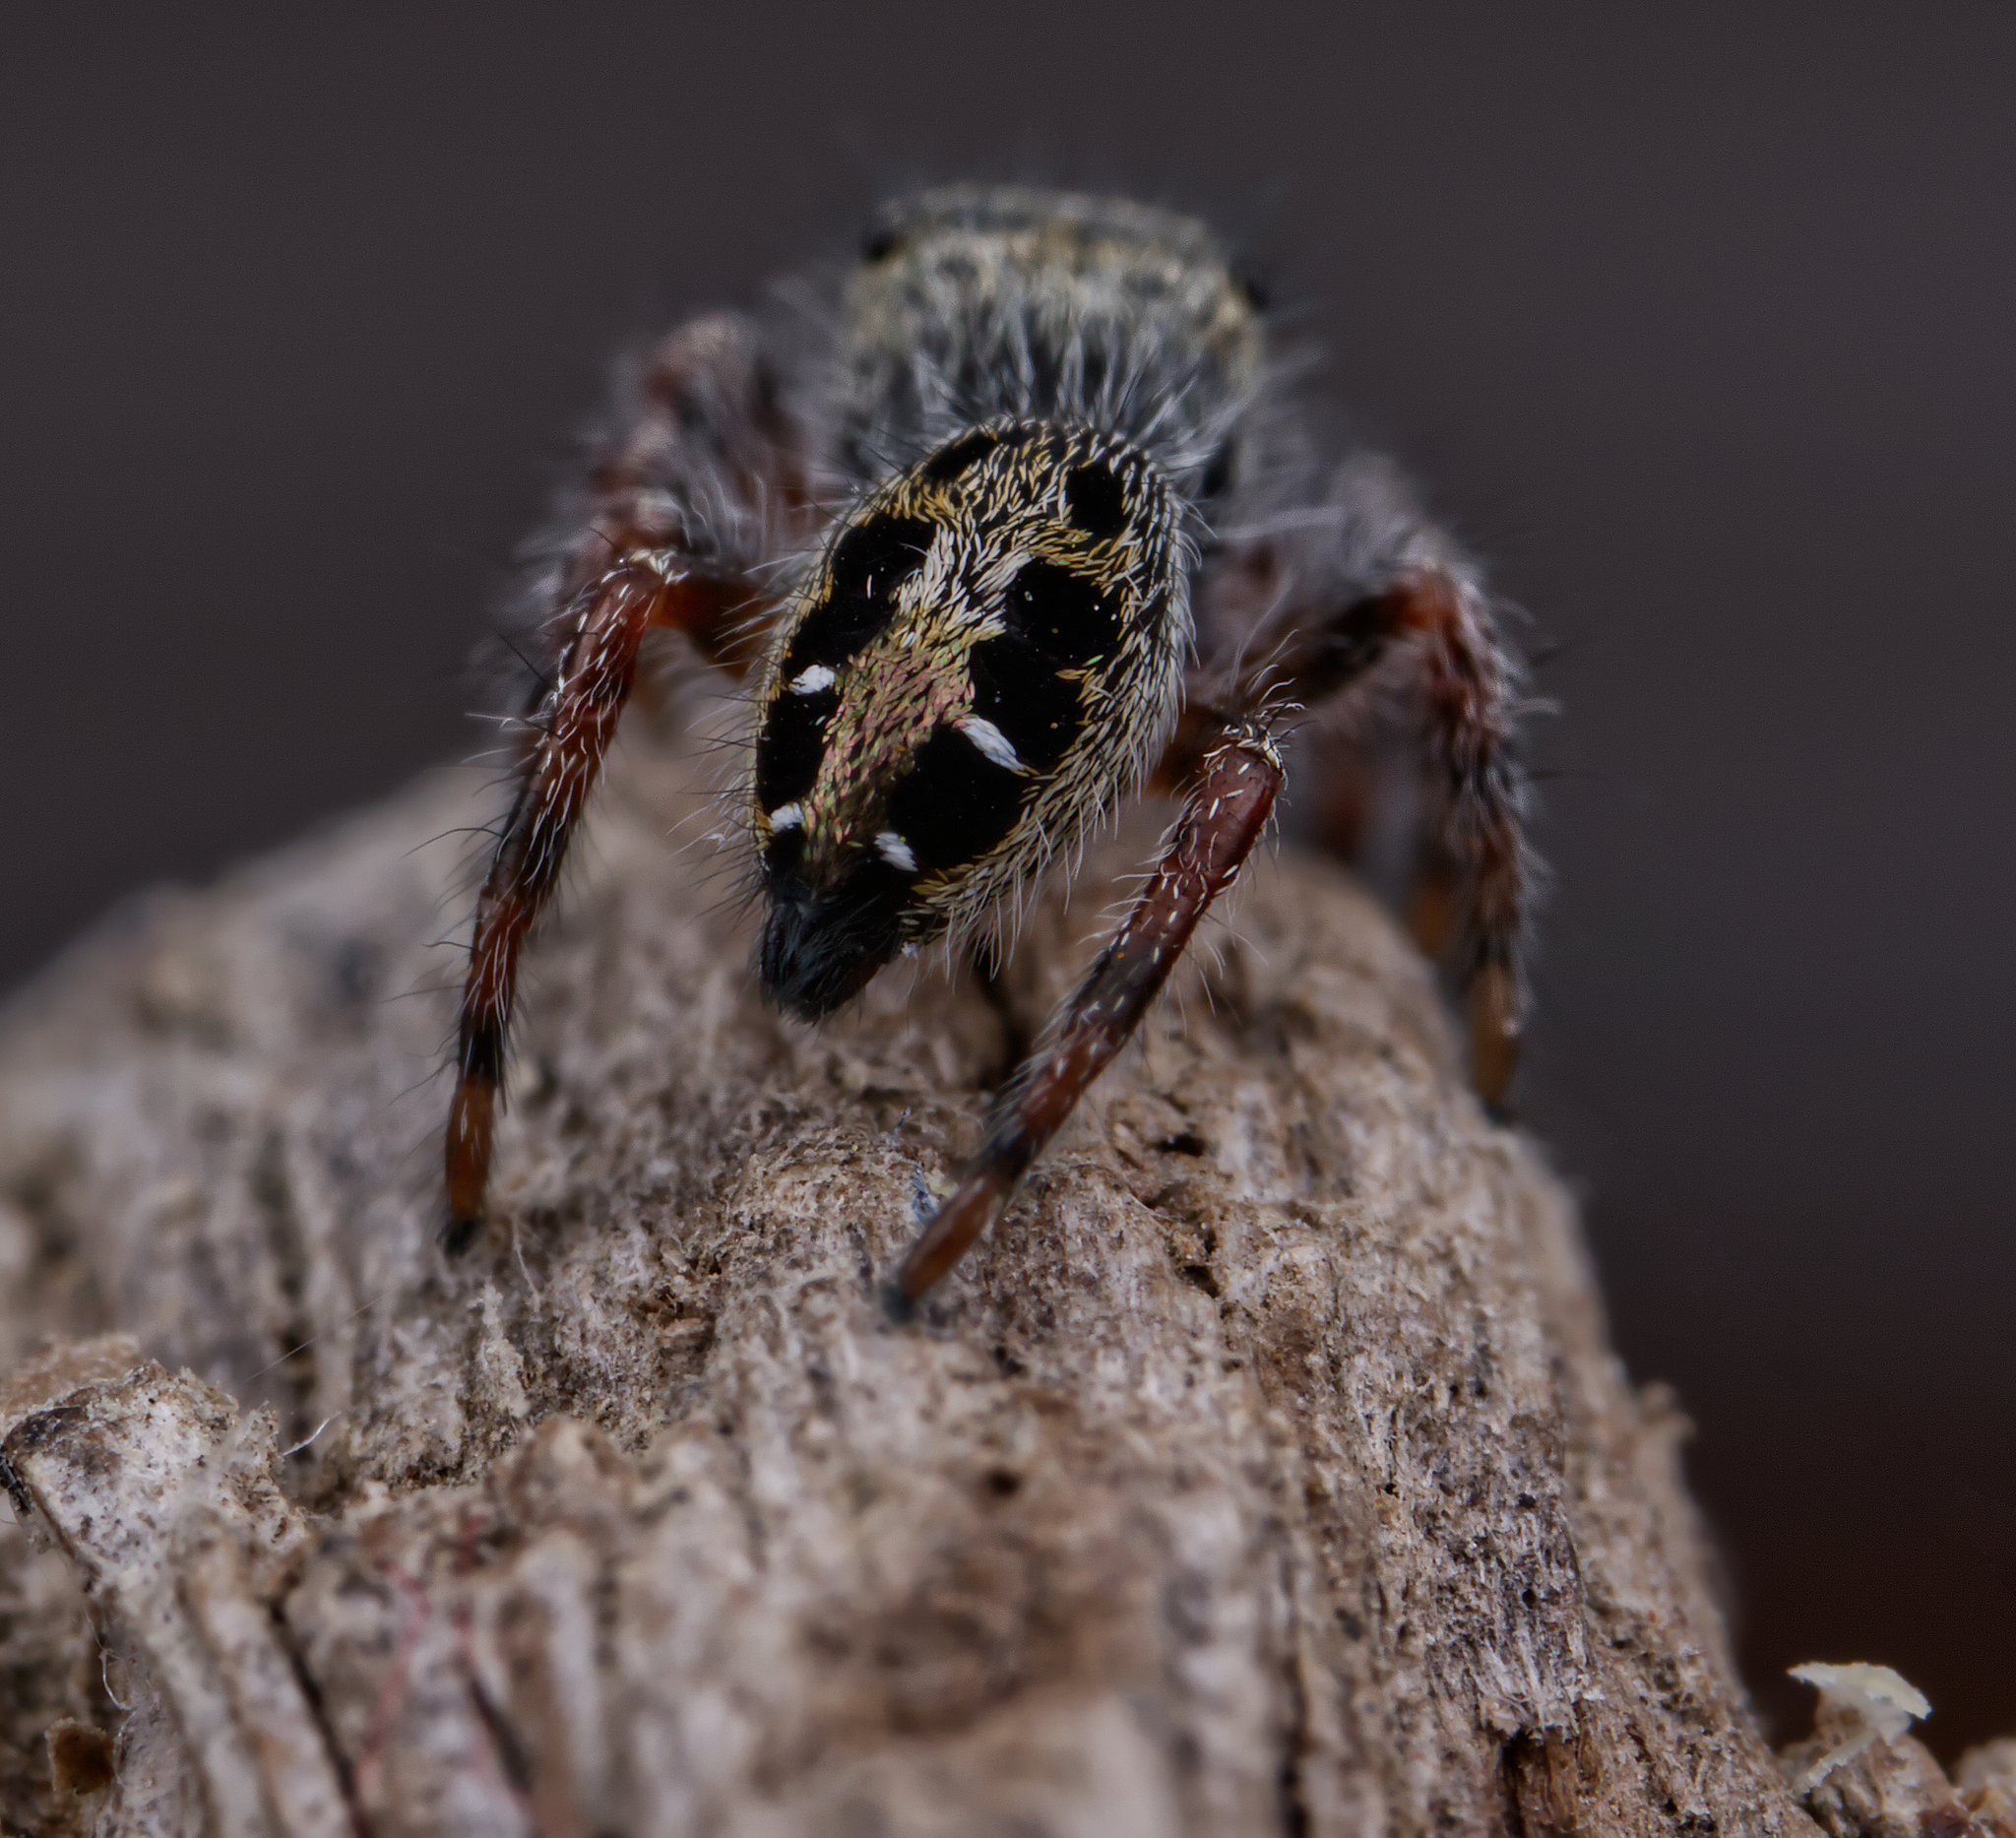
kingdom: Animalia
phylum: Arthropoda
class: Arachnida
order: Araneae
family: Salticidae
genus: Phidippus
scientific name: Phidippus insignarius
